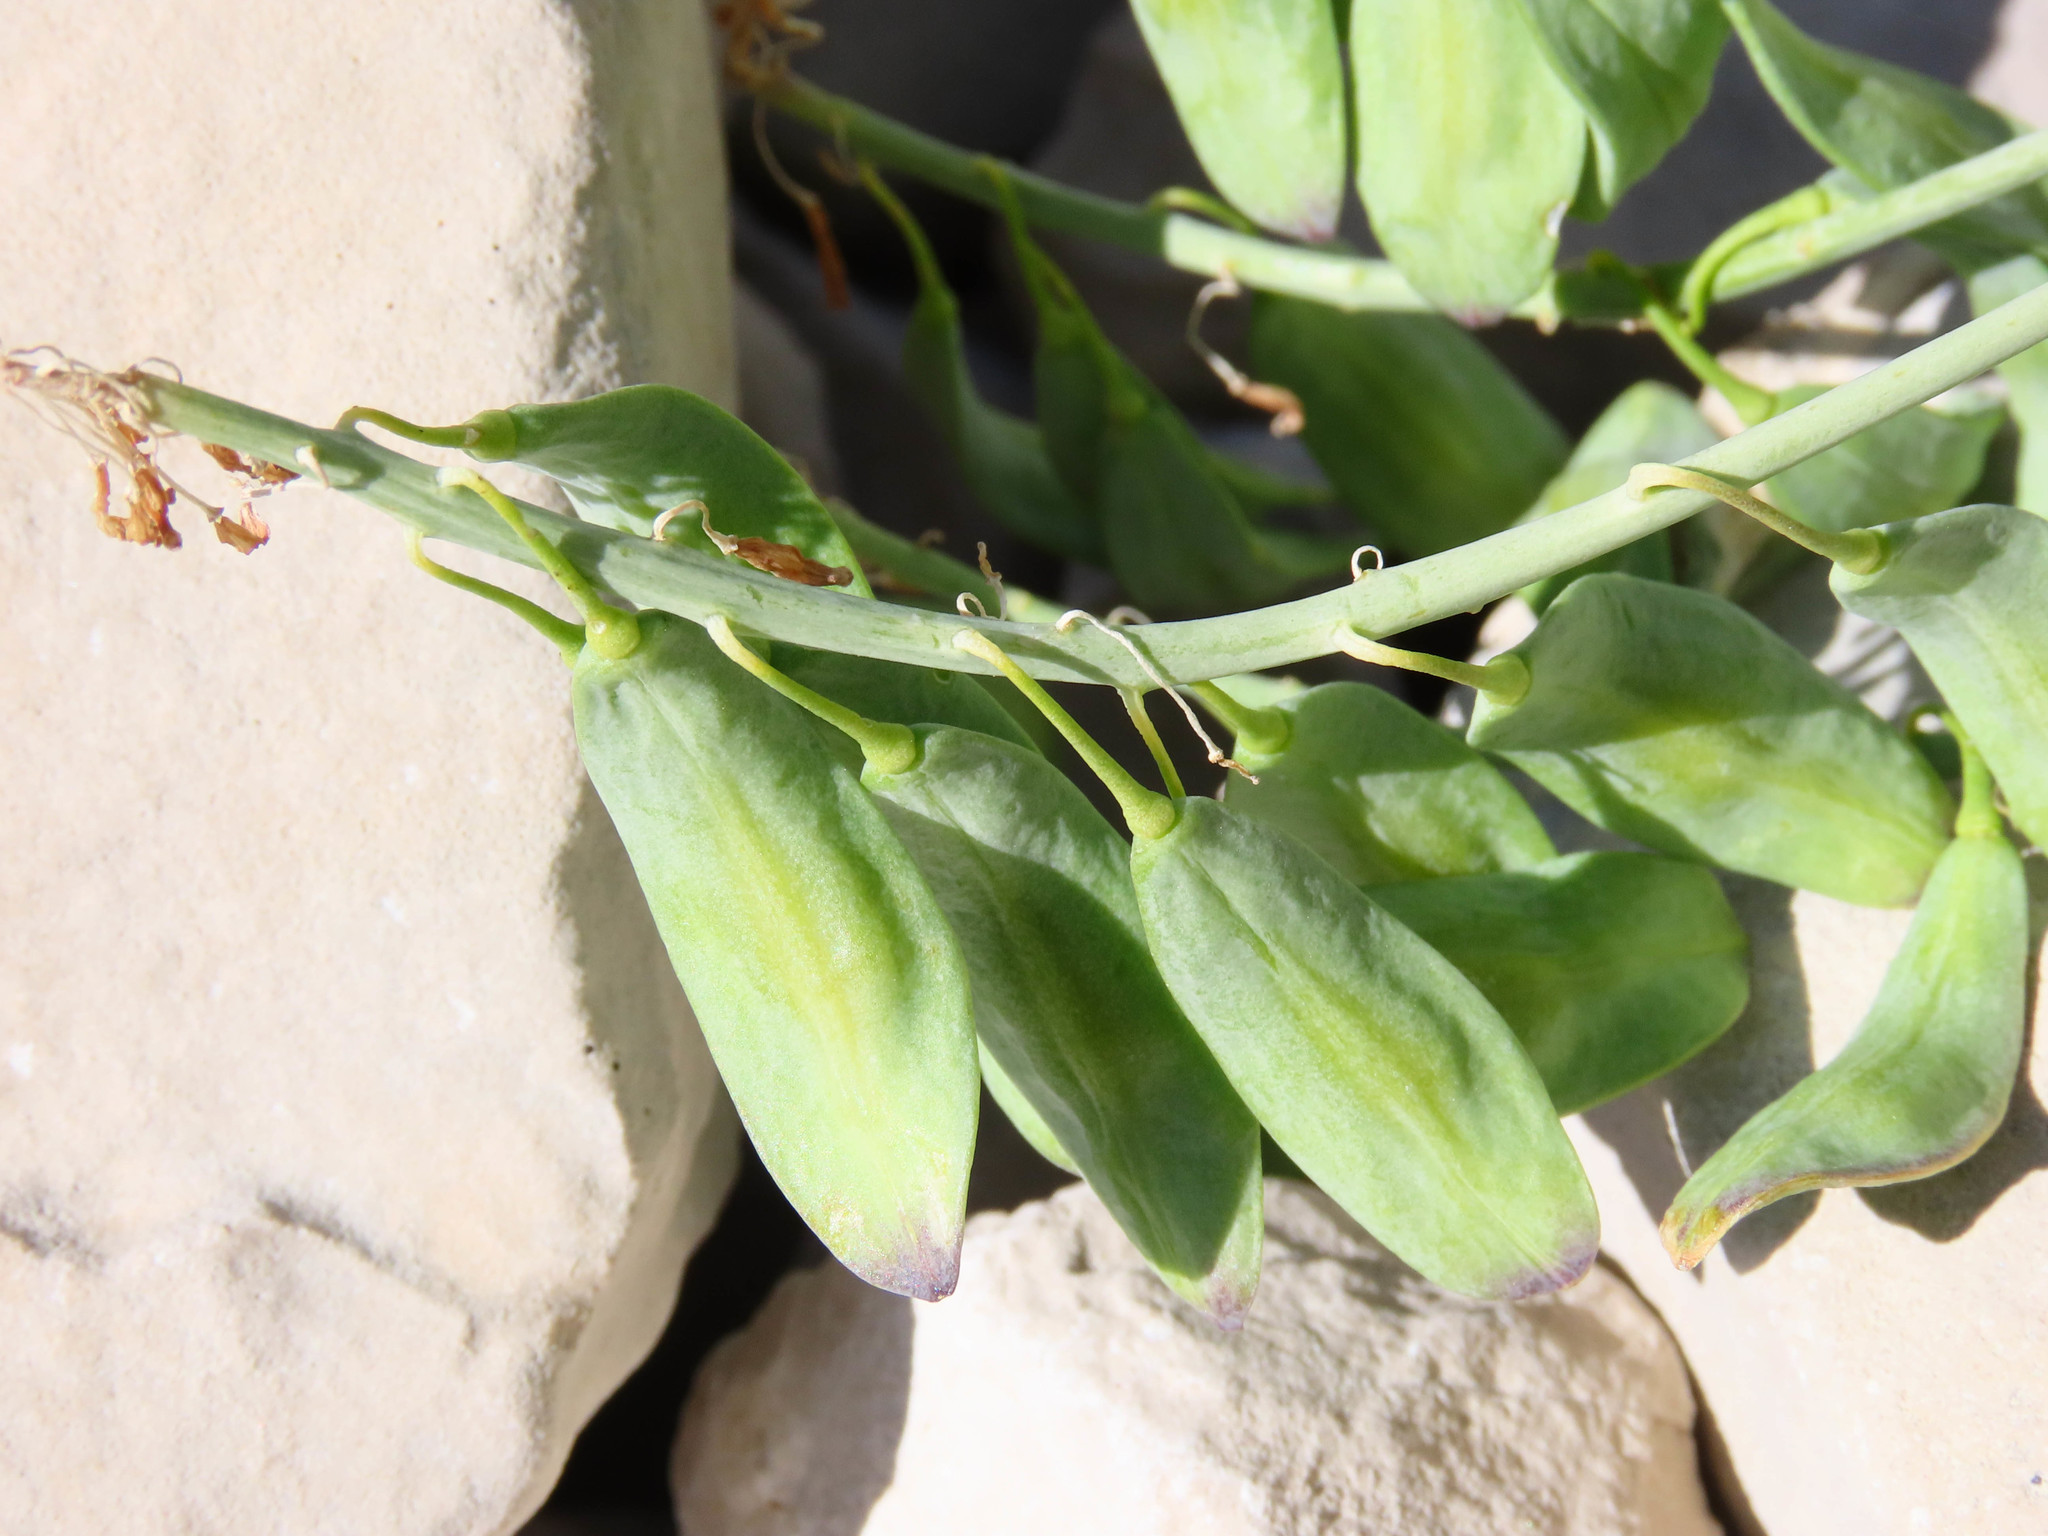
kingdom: Plantae
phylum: Tracheophyta
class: Magnoliopsida
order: Brassicales
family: Brassicaceae
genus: Isatis
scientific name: Isatis apennina
